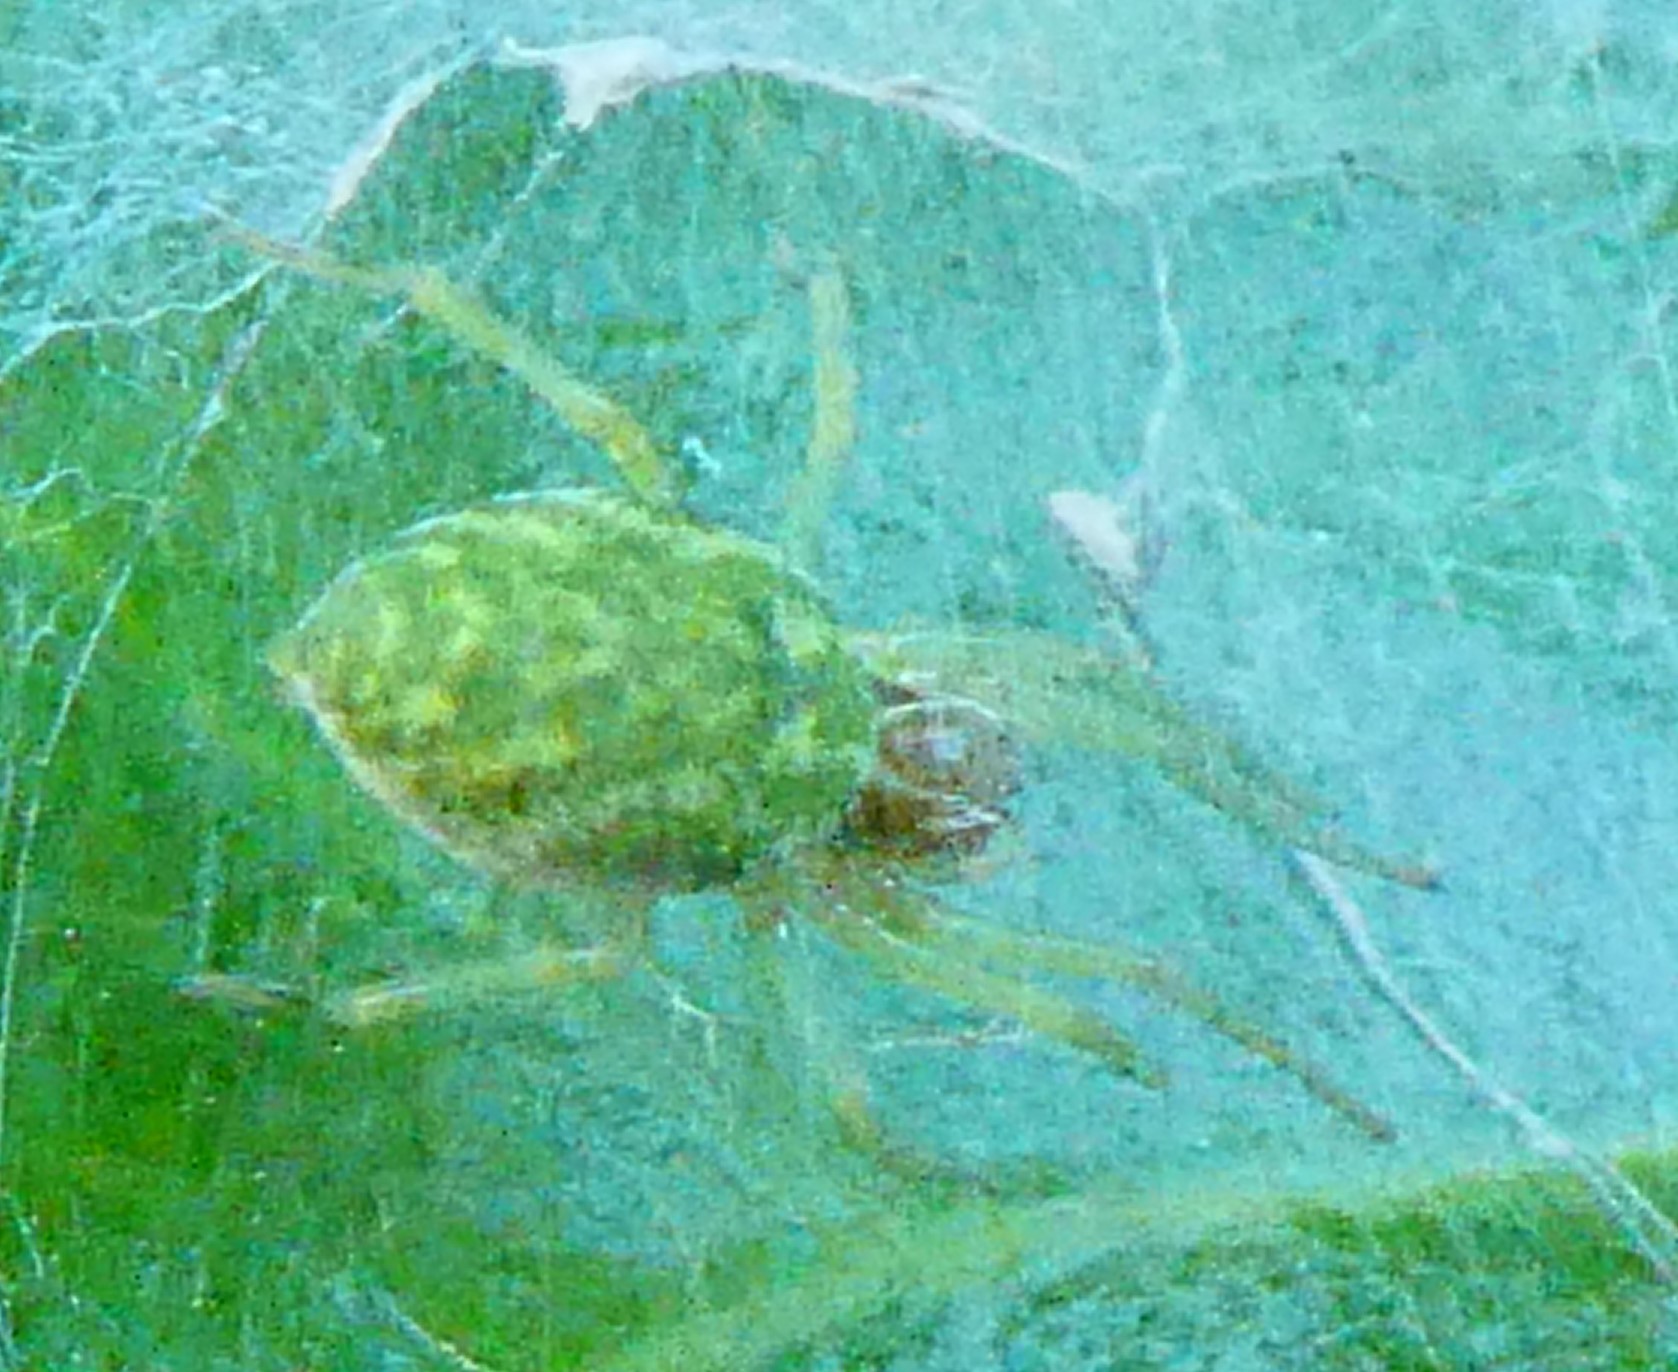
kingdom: Animalia
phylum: Arthropoda
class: Arachnida
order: Araneae
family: Dictynidae
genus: Nigma
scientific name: Nigma walckenaeri
